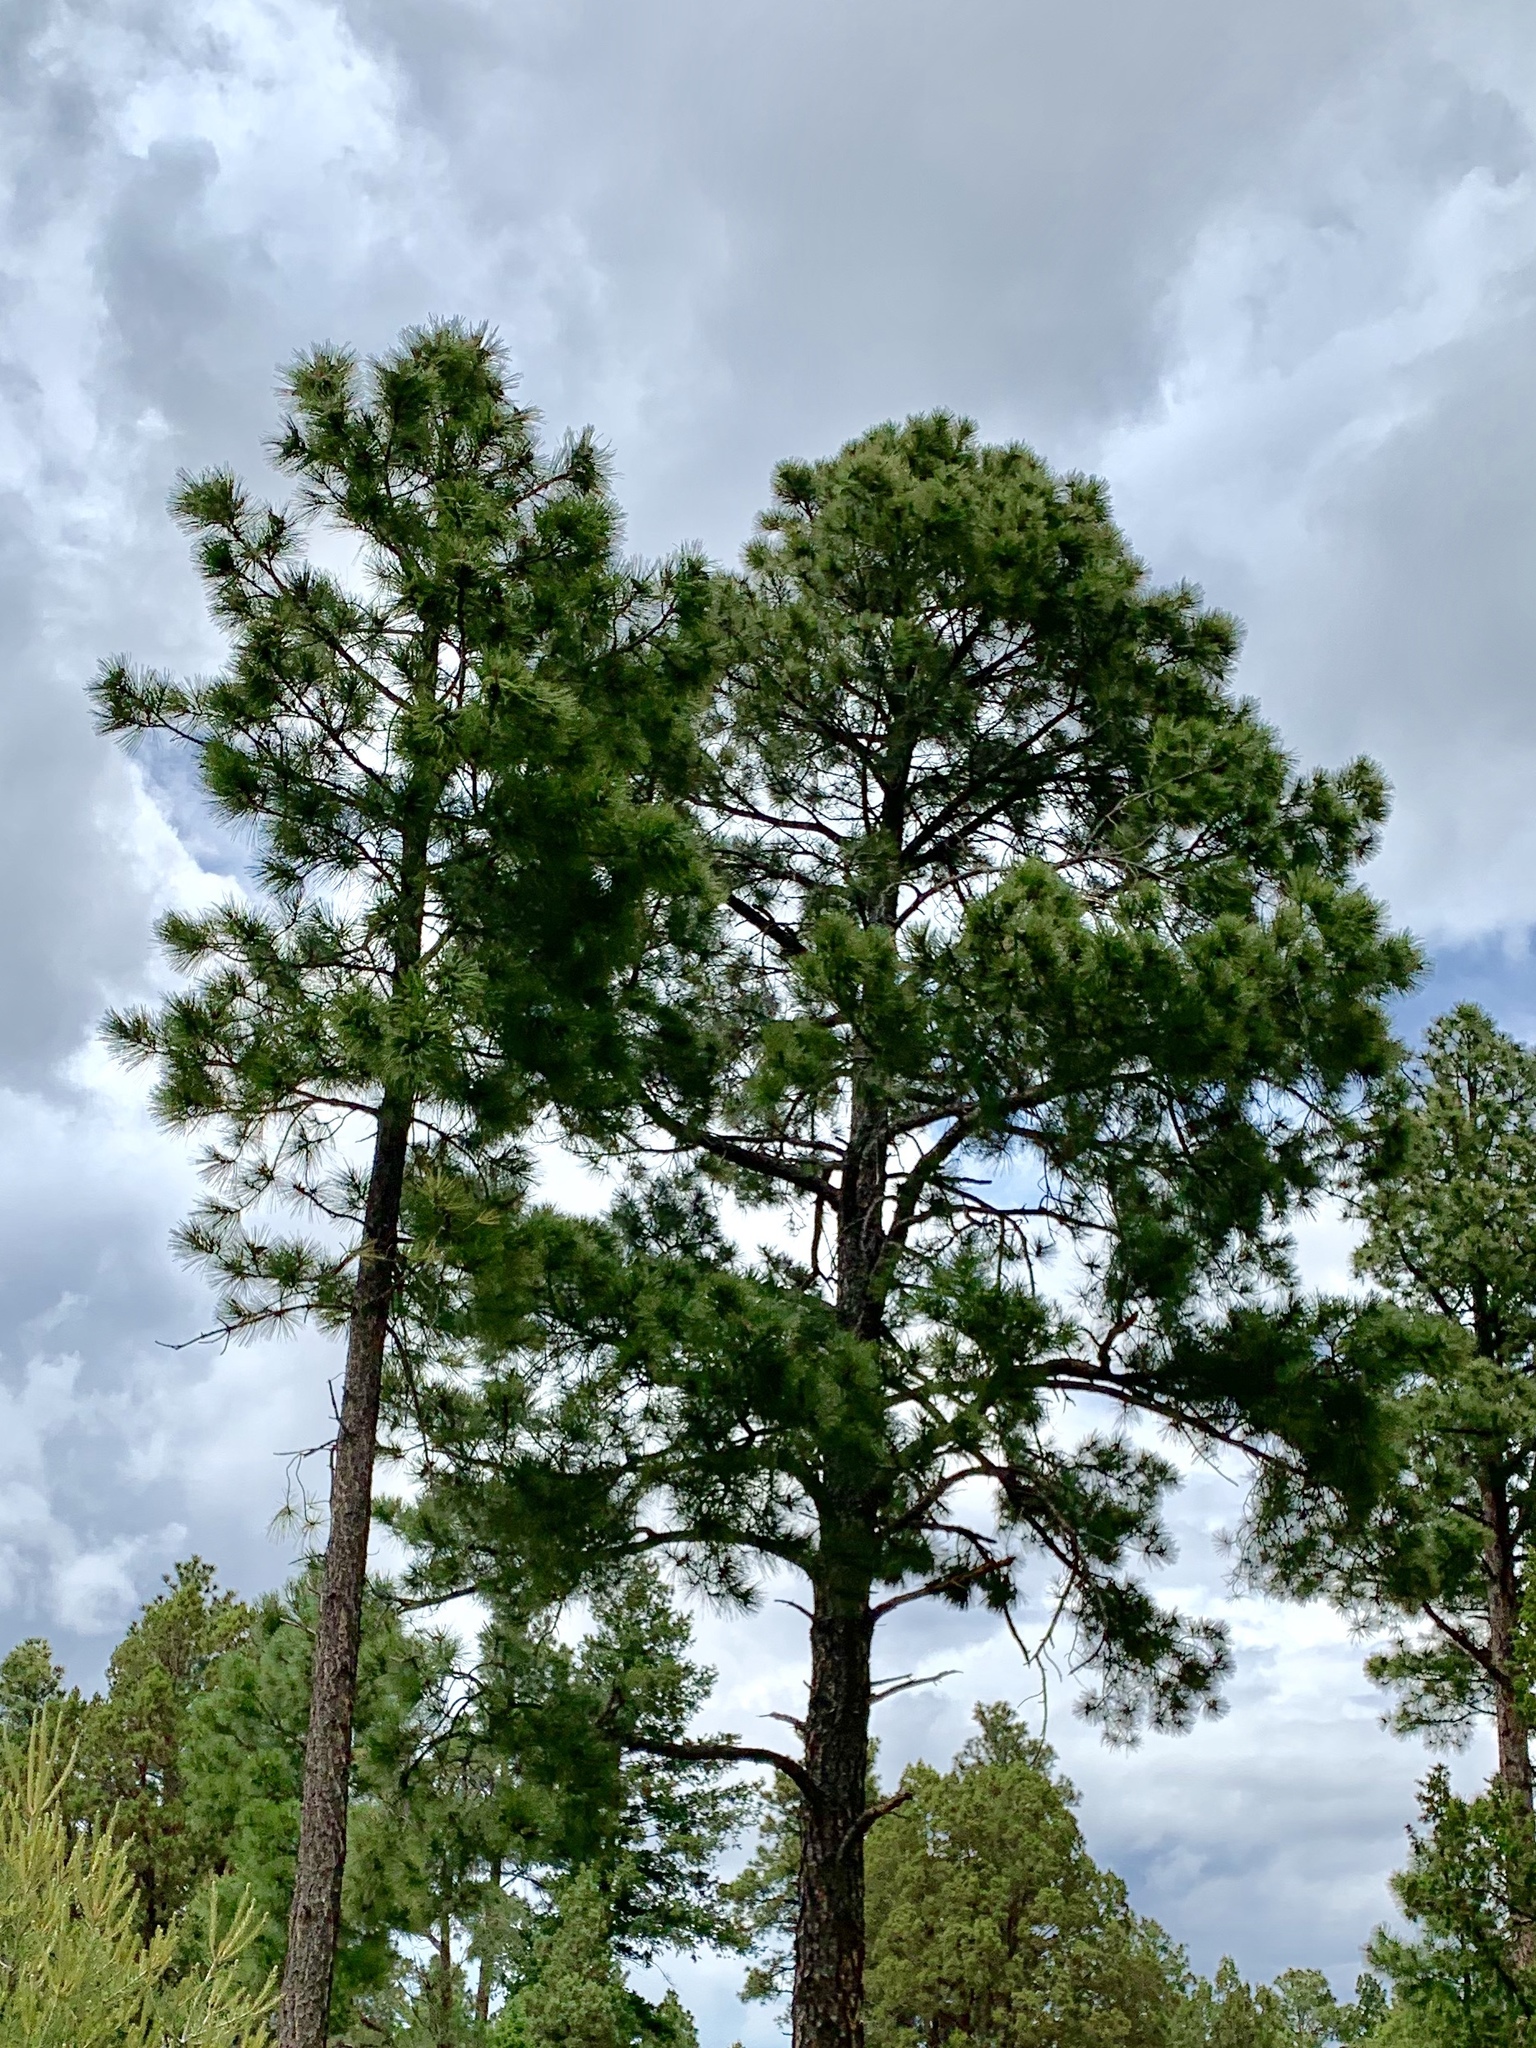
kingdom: Plantae
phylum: Tracheophyta
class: Pinopsida
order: Pinales
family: Pinaceae
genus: Pinus
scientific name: Pinus ponderosa
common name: Western yellow-pine
